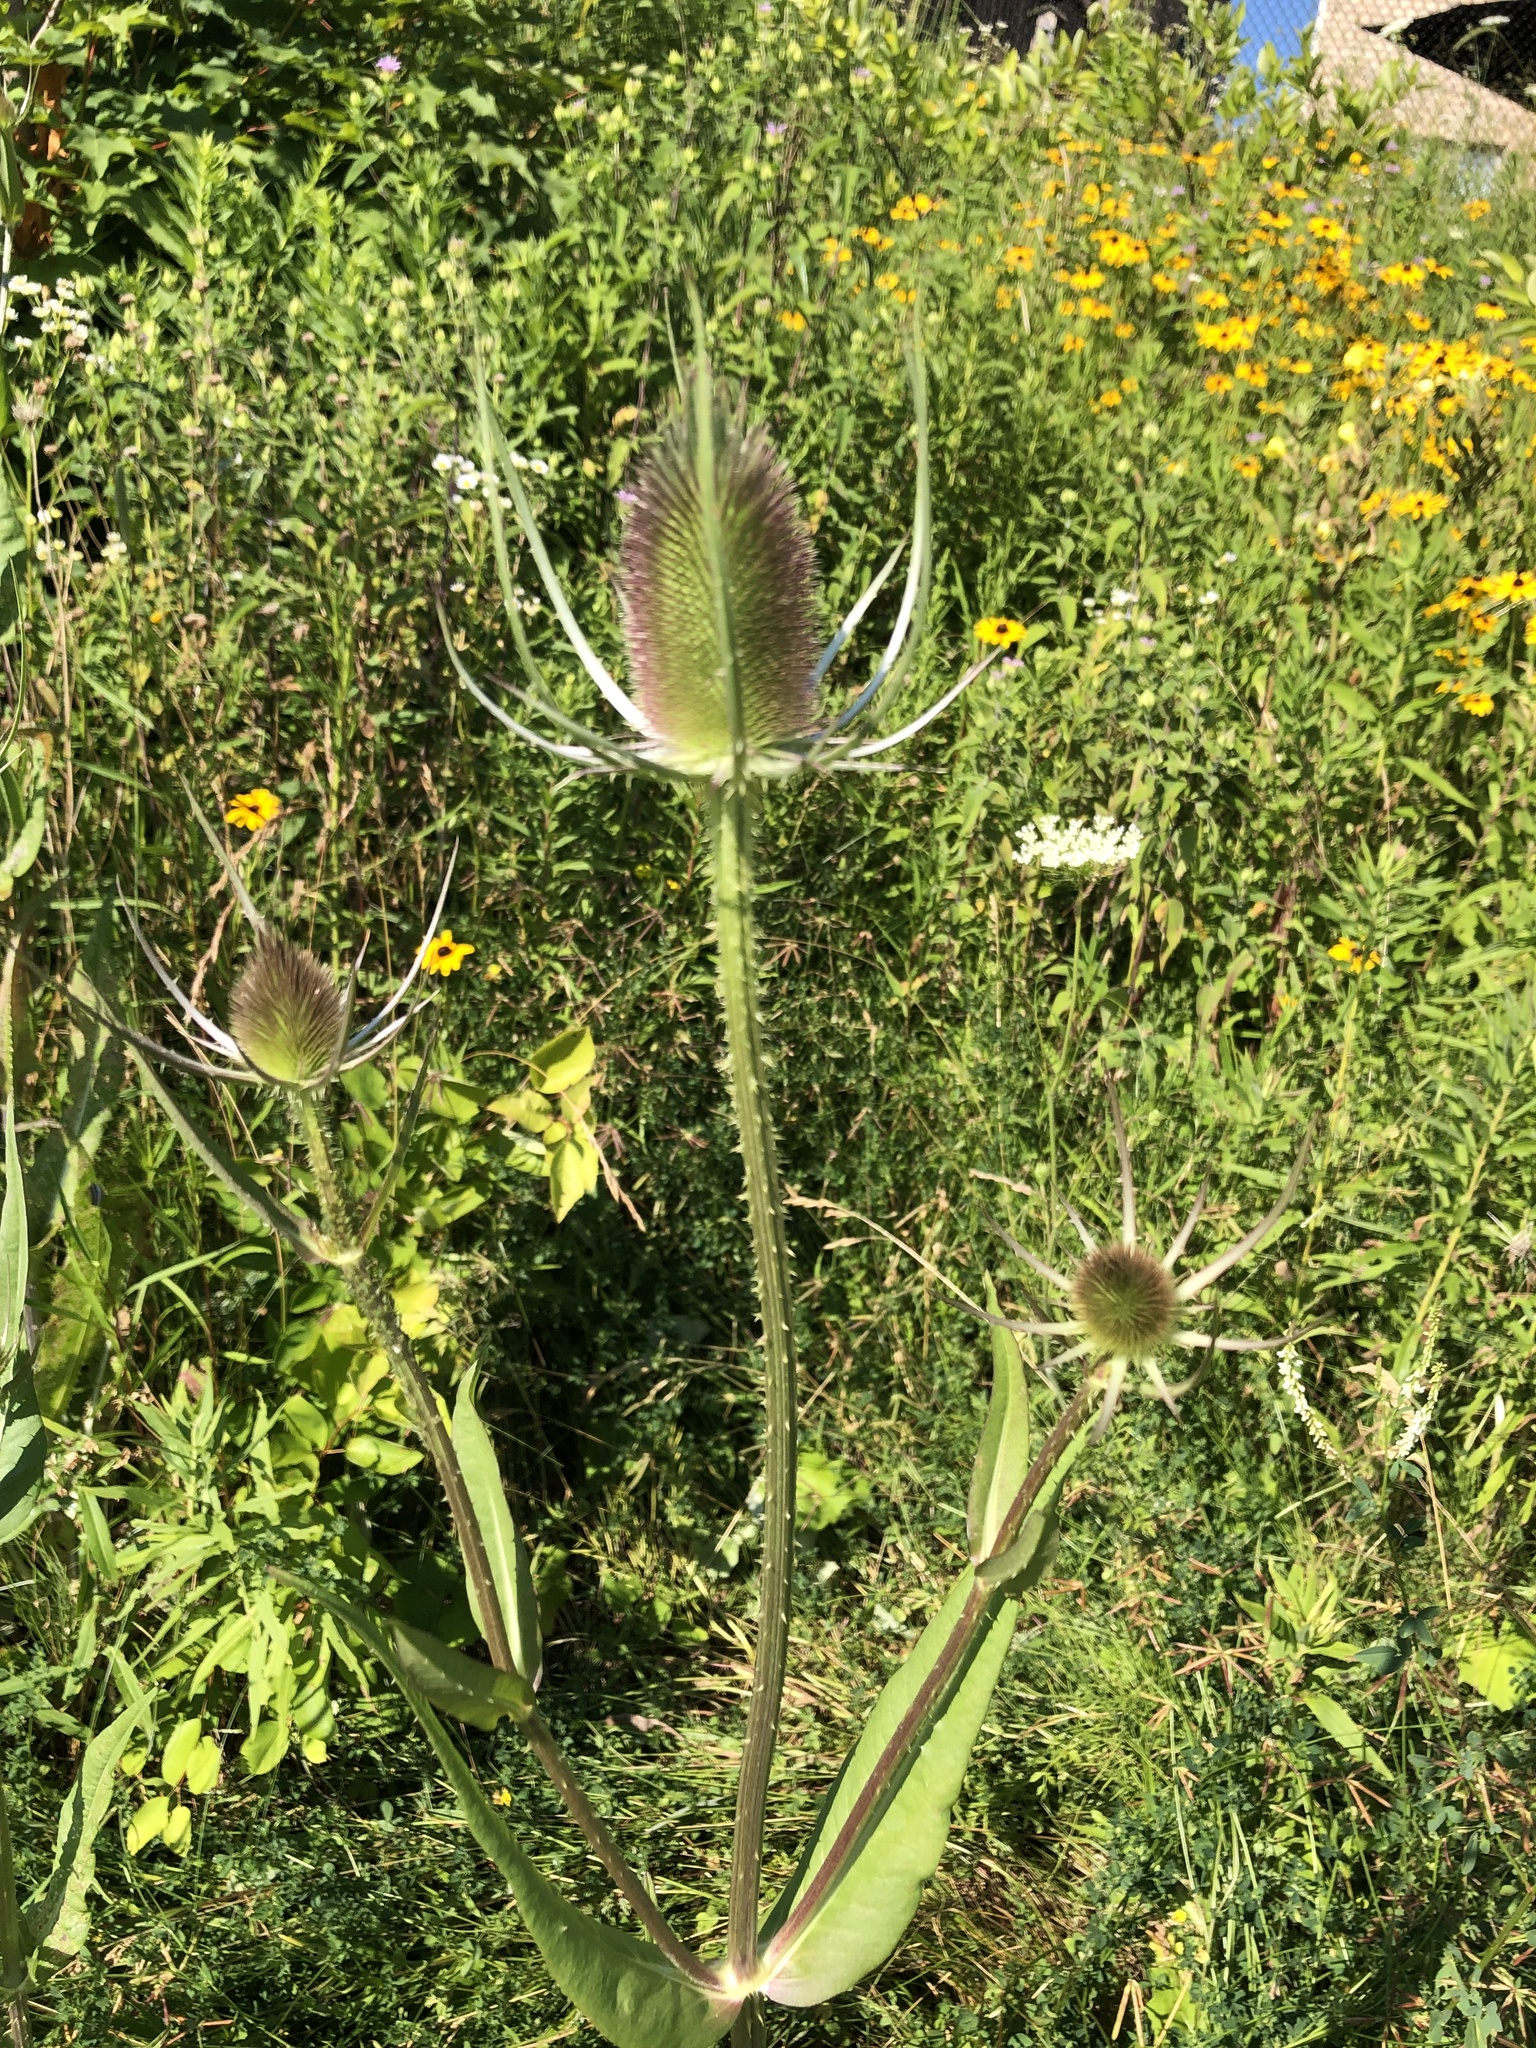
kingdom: Plantae
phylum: Tracheophyta
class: Magnoliopsida
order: Dipsacales
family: Caprifoliaceae
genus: Dipsacus
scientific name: Dipsacus fullonum
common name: Teasel
